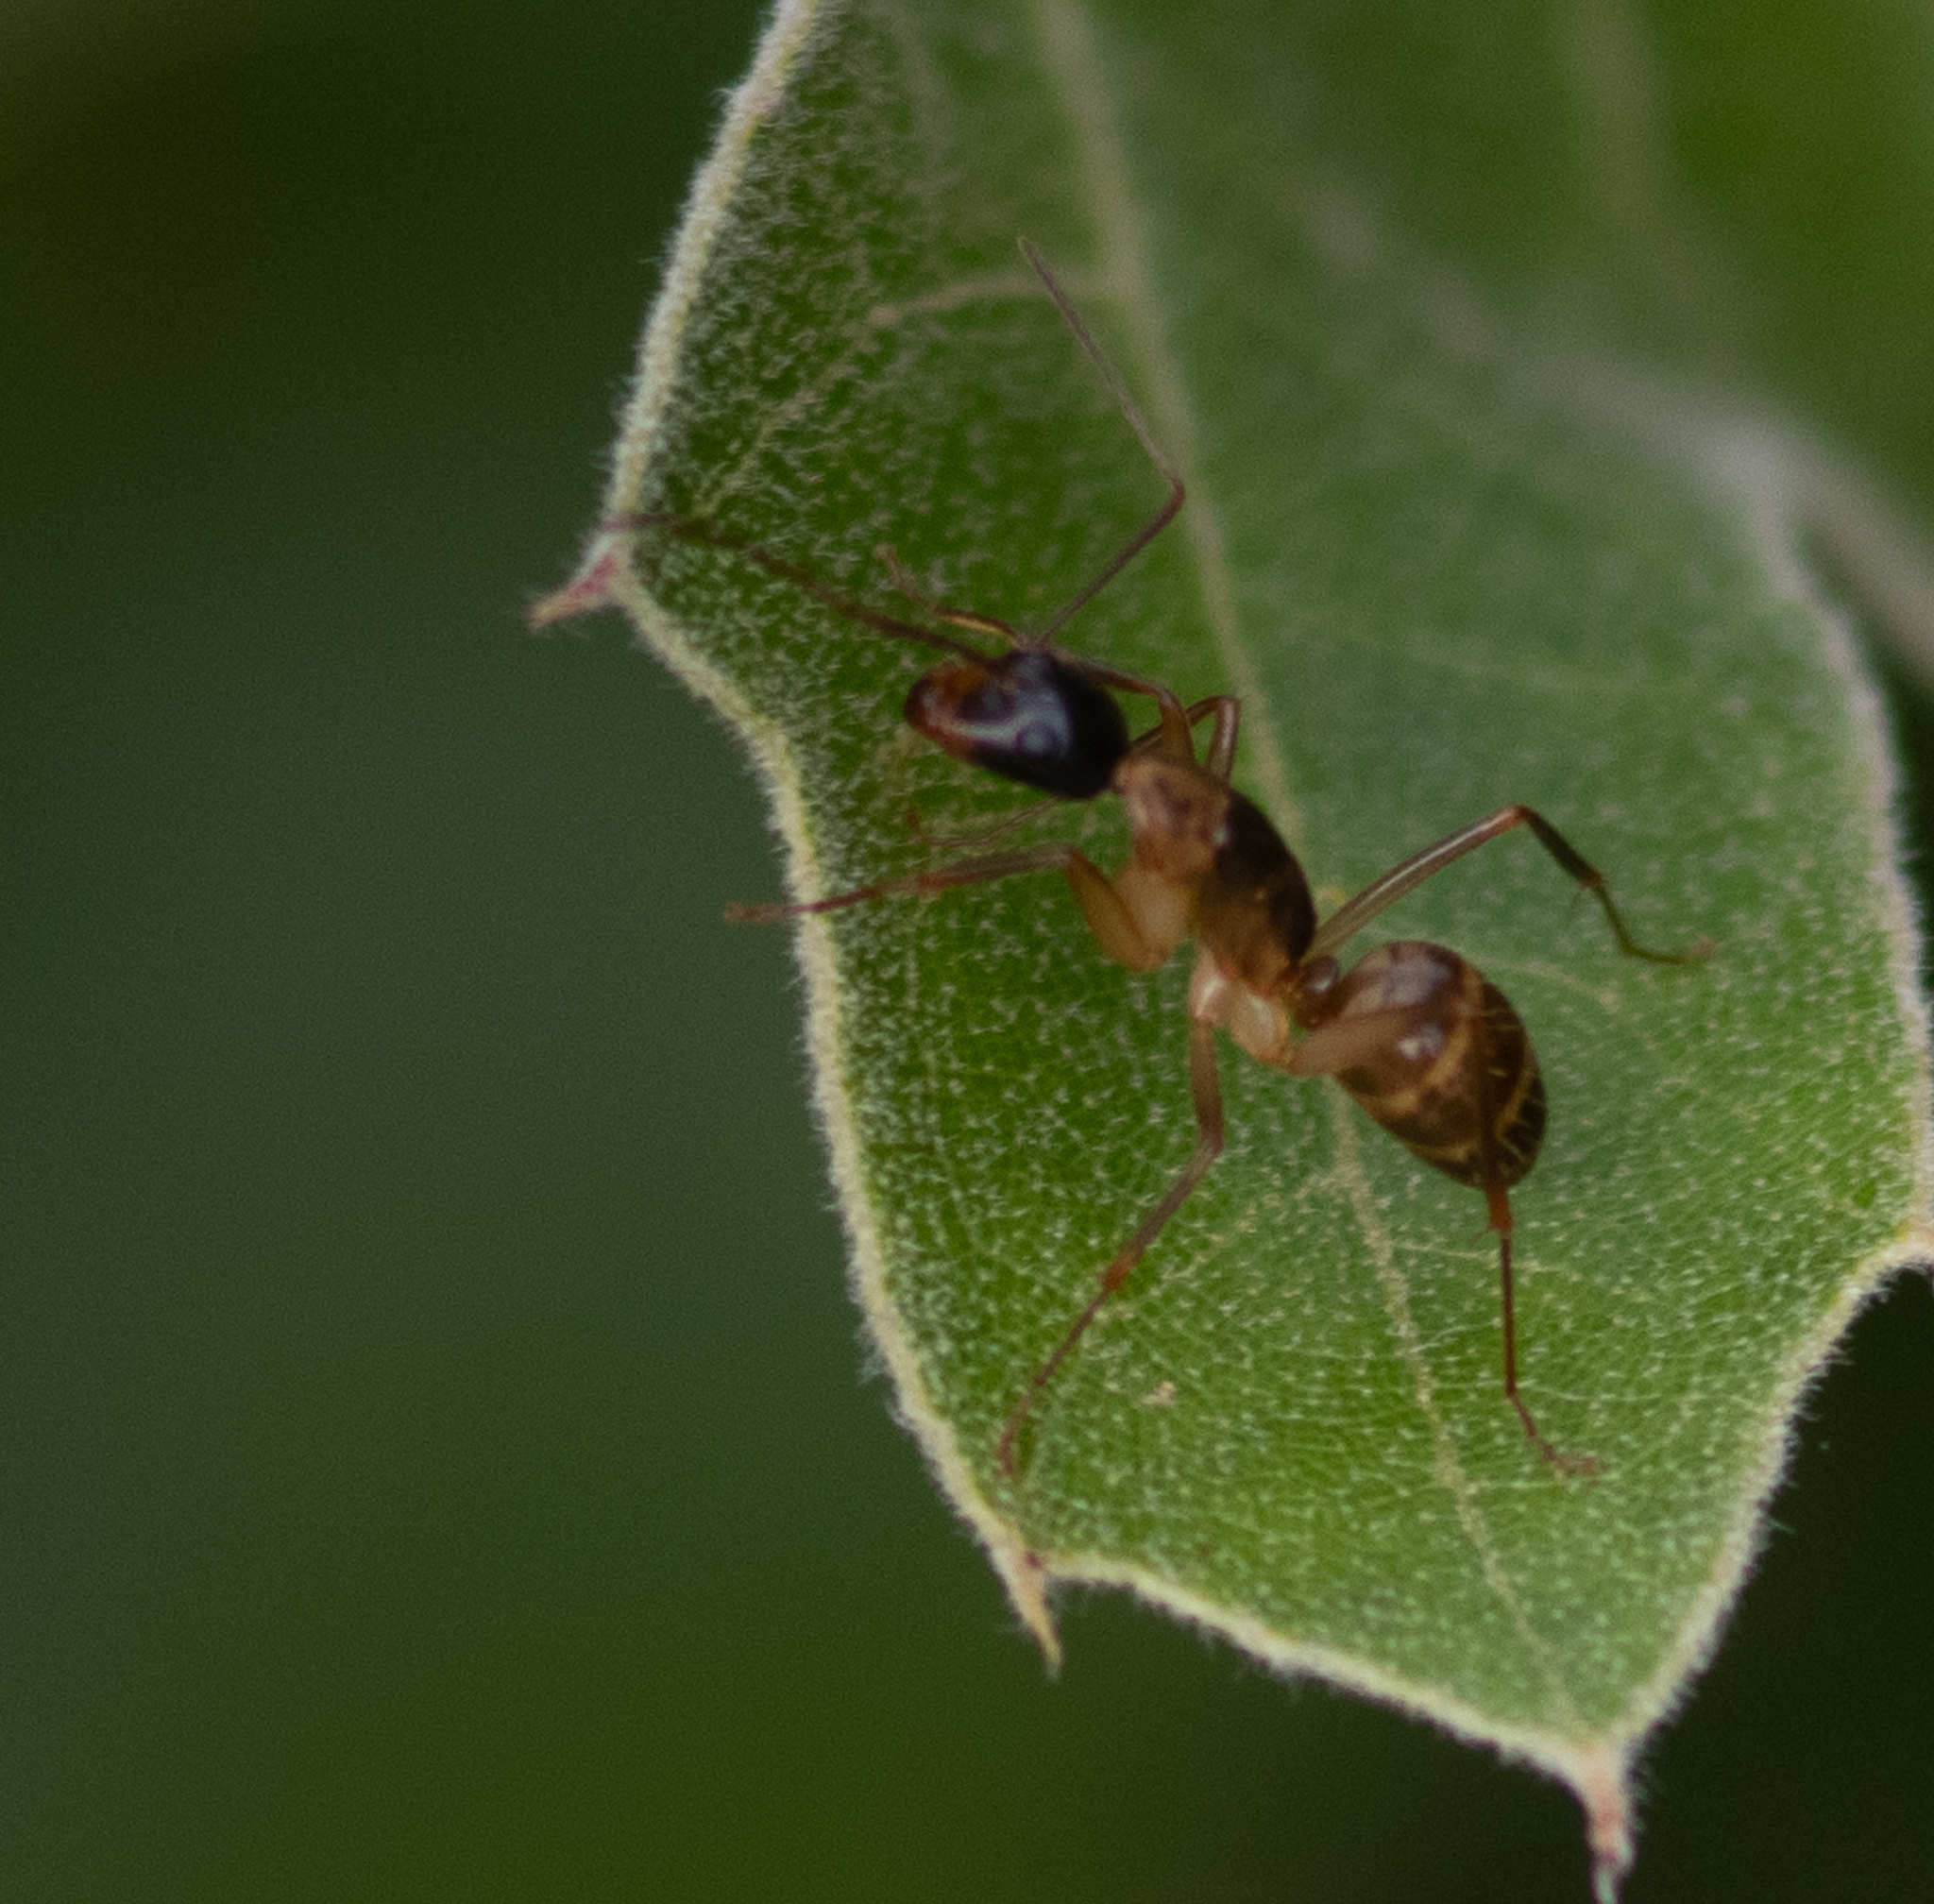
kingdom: Animalia
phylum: Arthropoda
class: Insecta
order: Hymenoptera
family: Formicidae
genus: Camponotus
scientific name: Camponotus americanus
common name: American carpenter ant
